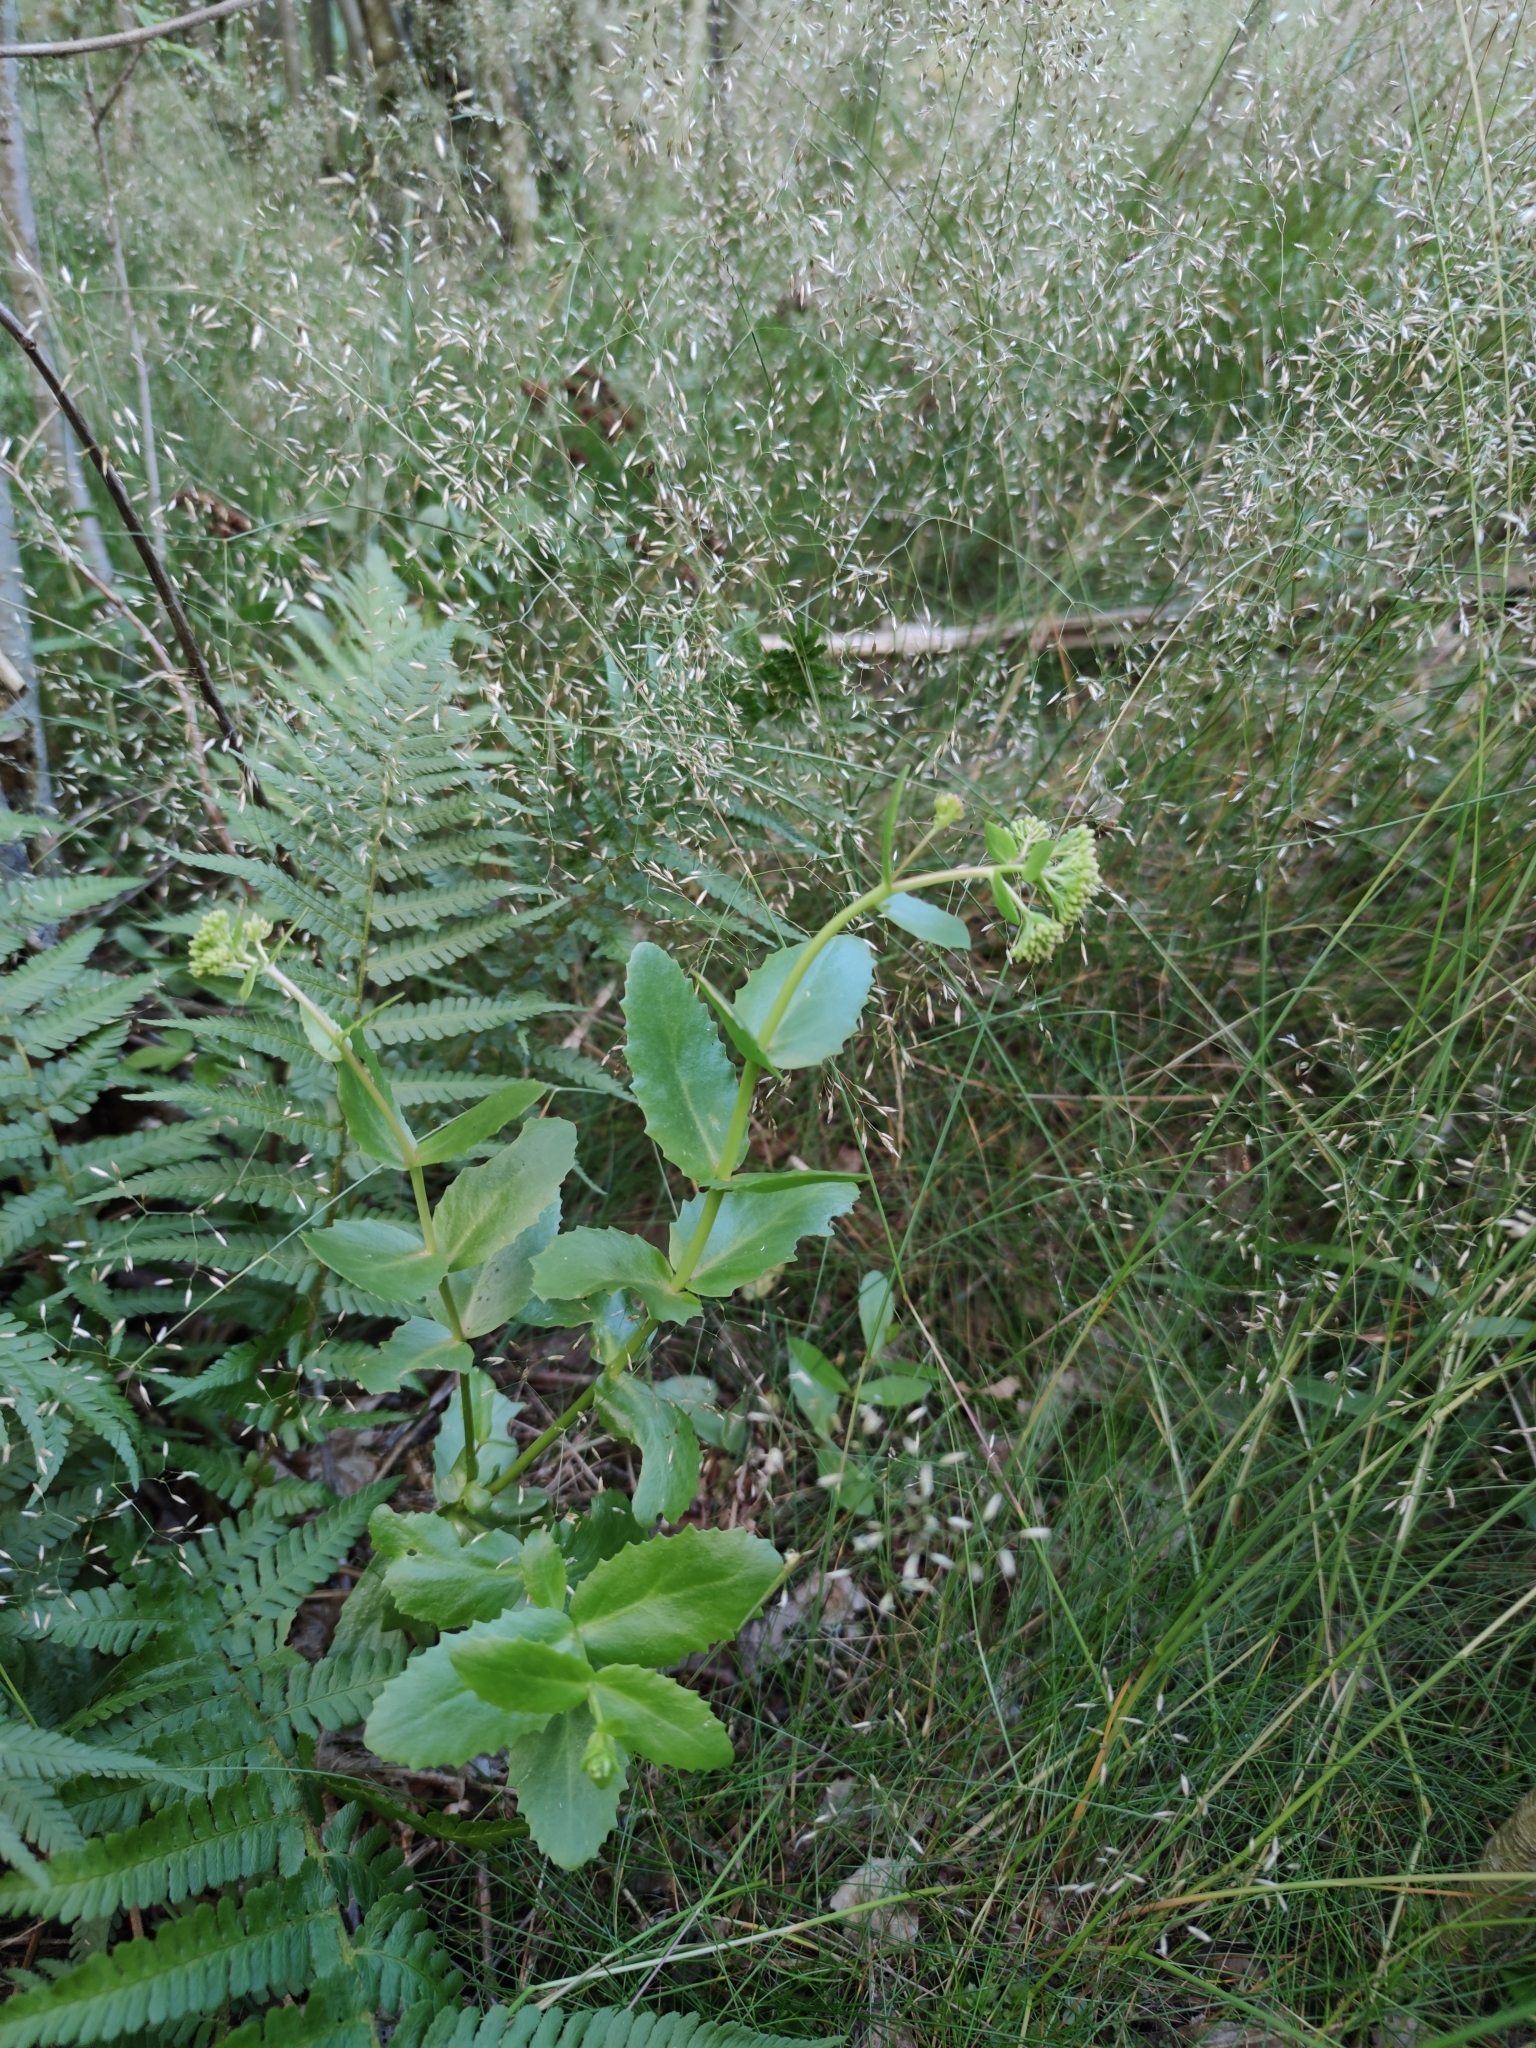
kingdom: Plantae
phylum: Tracheophyta
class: Magnoliopsida
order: Saxifragales
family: Crassulaceae
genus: Hylotelephium
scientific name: Hylotelephium maximum
